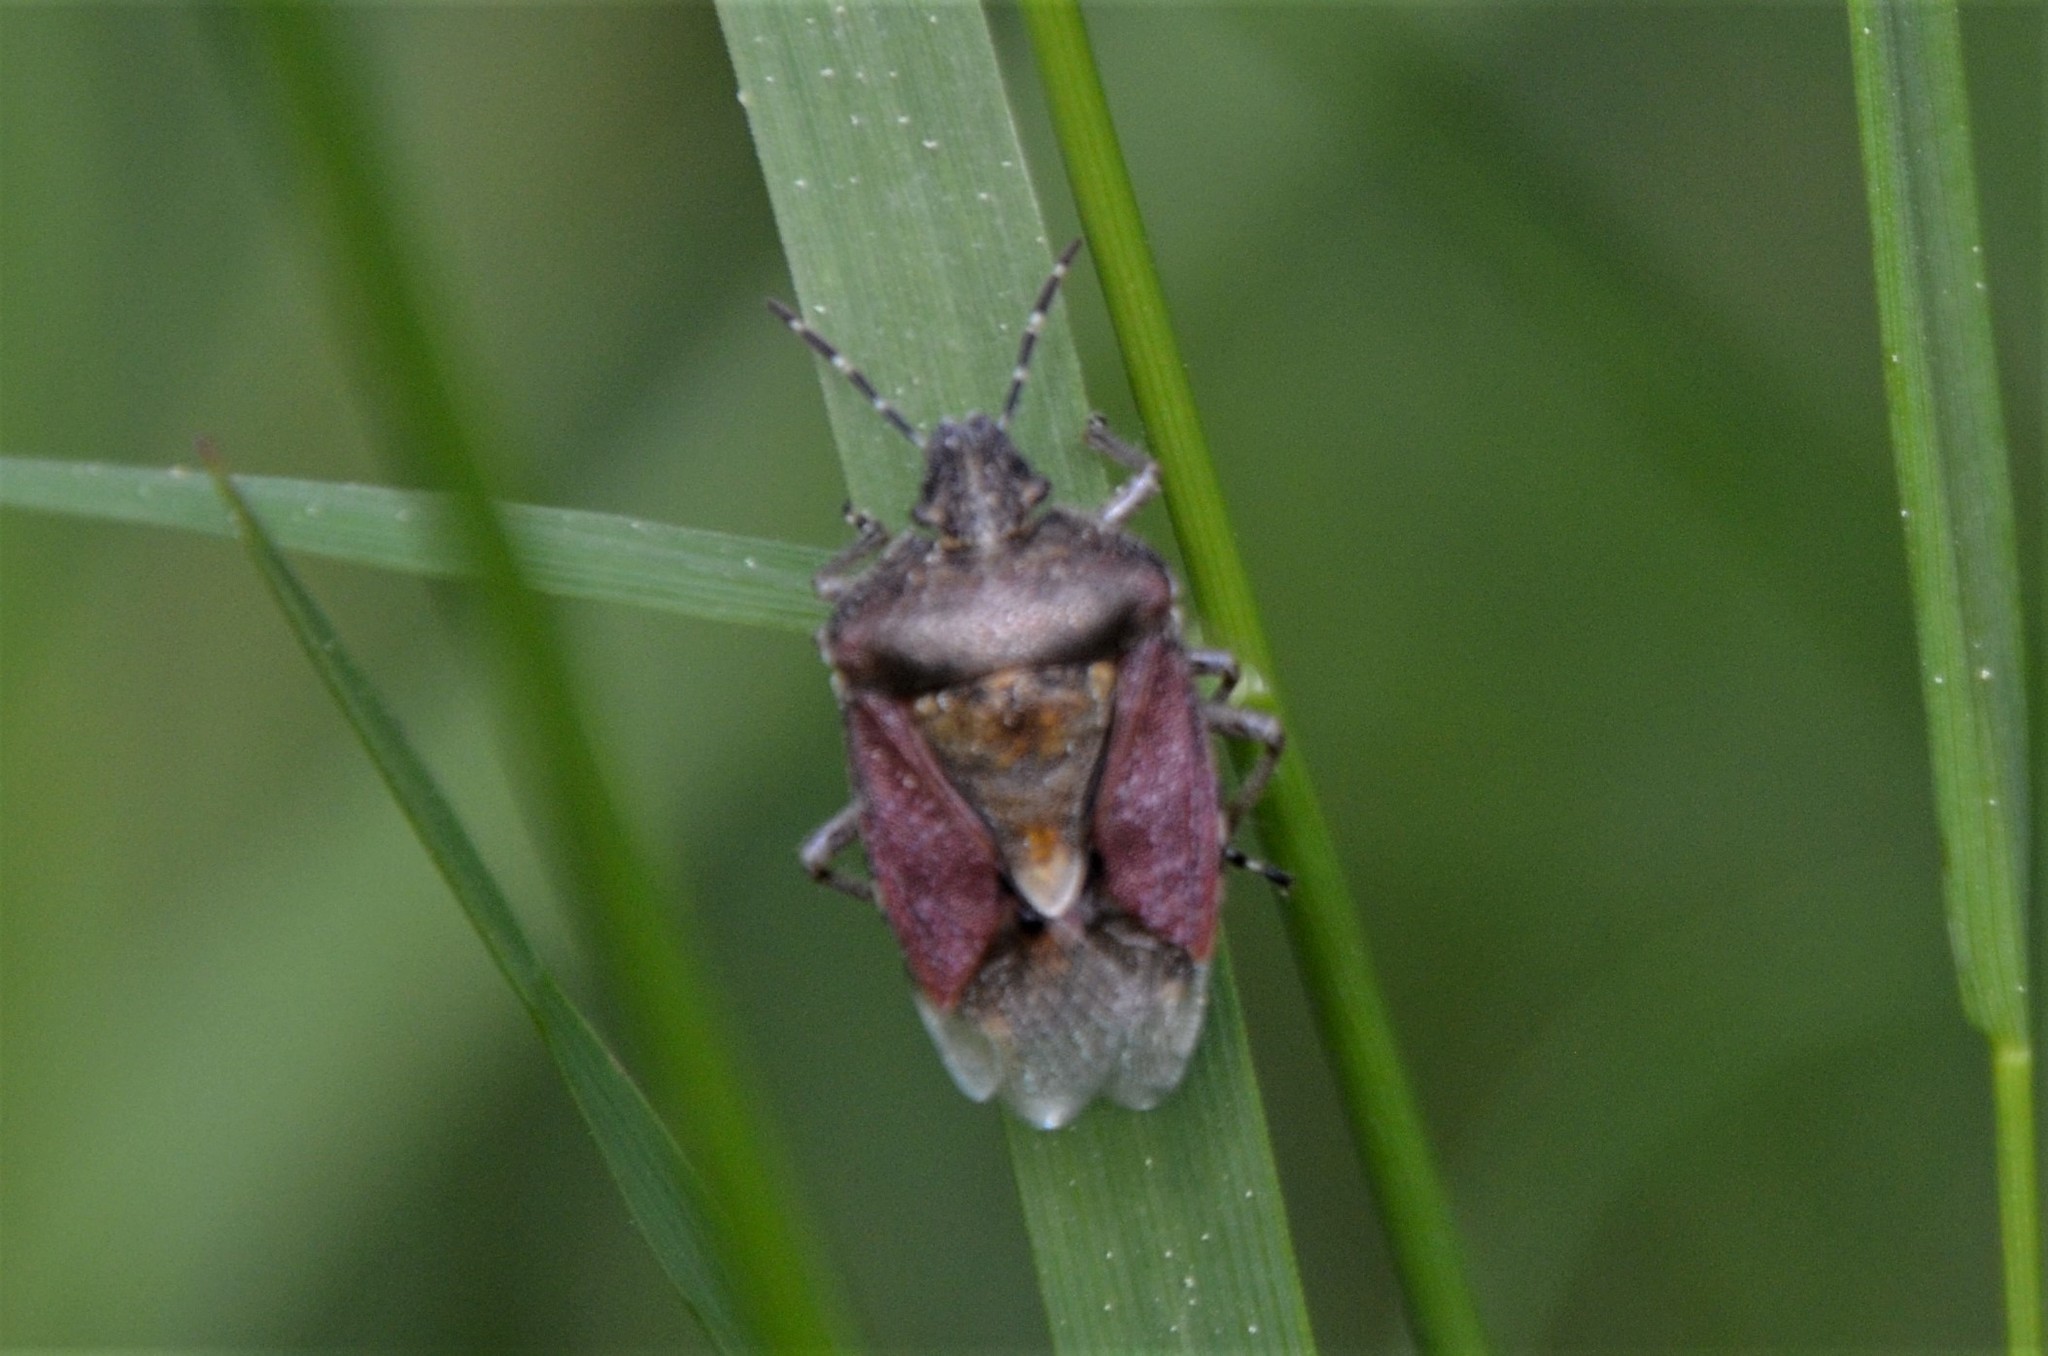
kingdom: Animalia
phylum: Arthropoda
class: Insecta
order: Hemiptera
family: Pentatomidae
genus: Dolycoris
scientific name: Dolycoris baccarum
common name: Sloe bug
